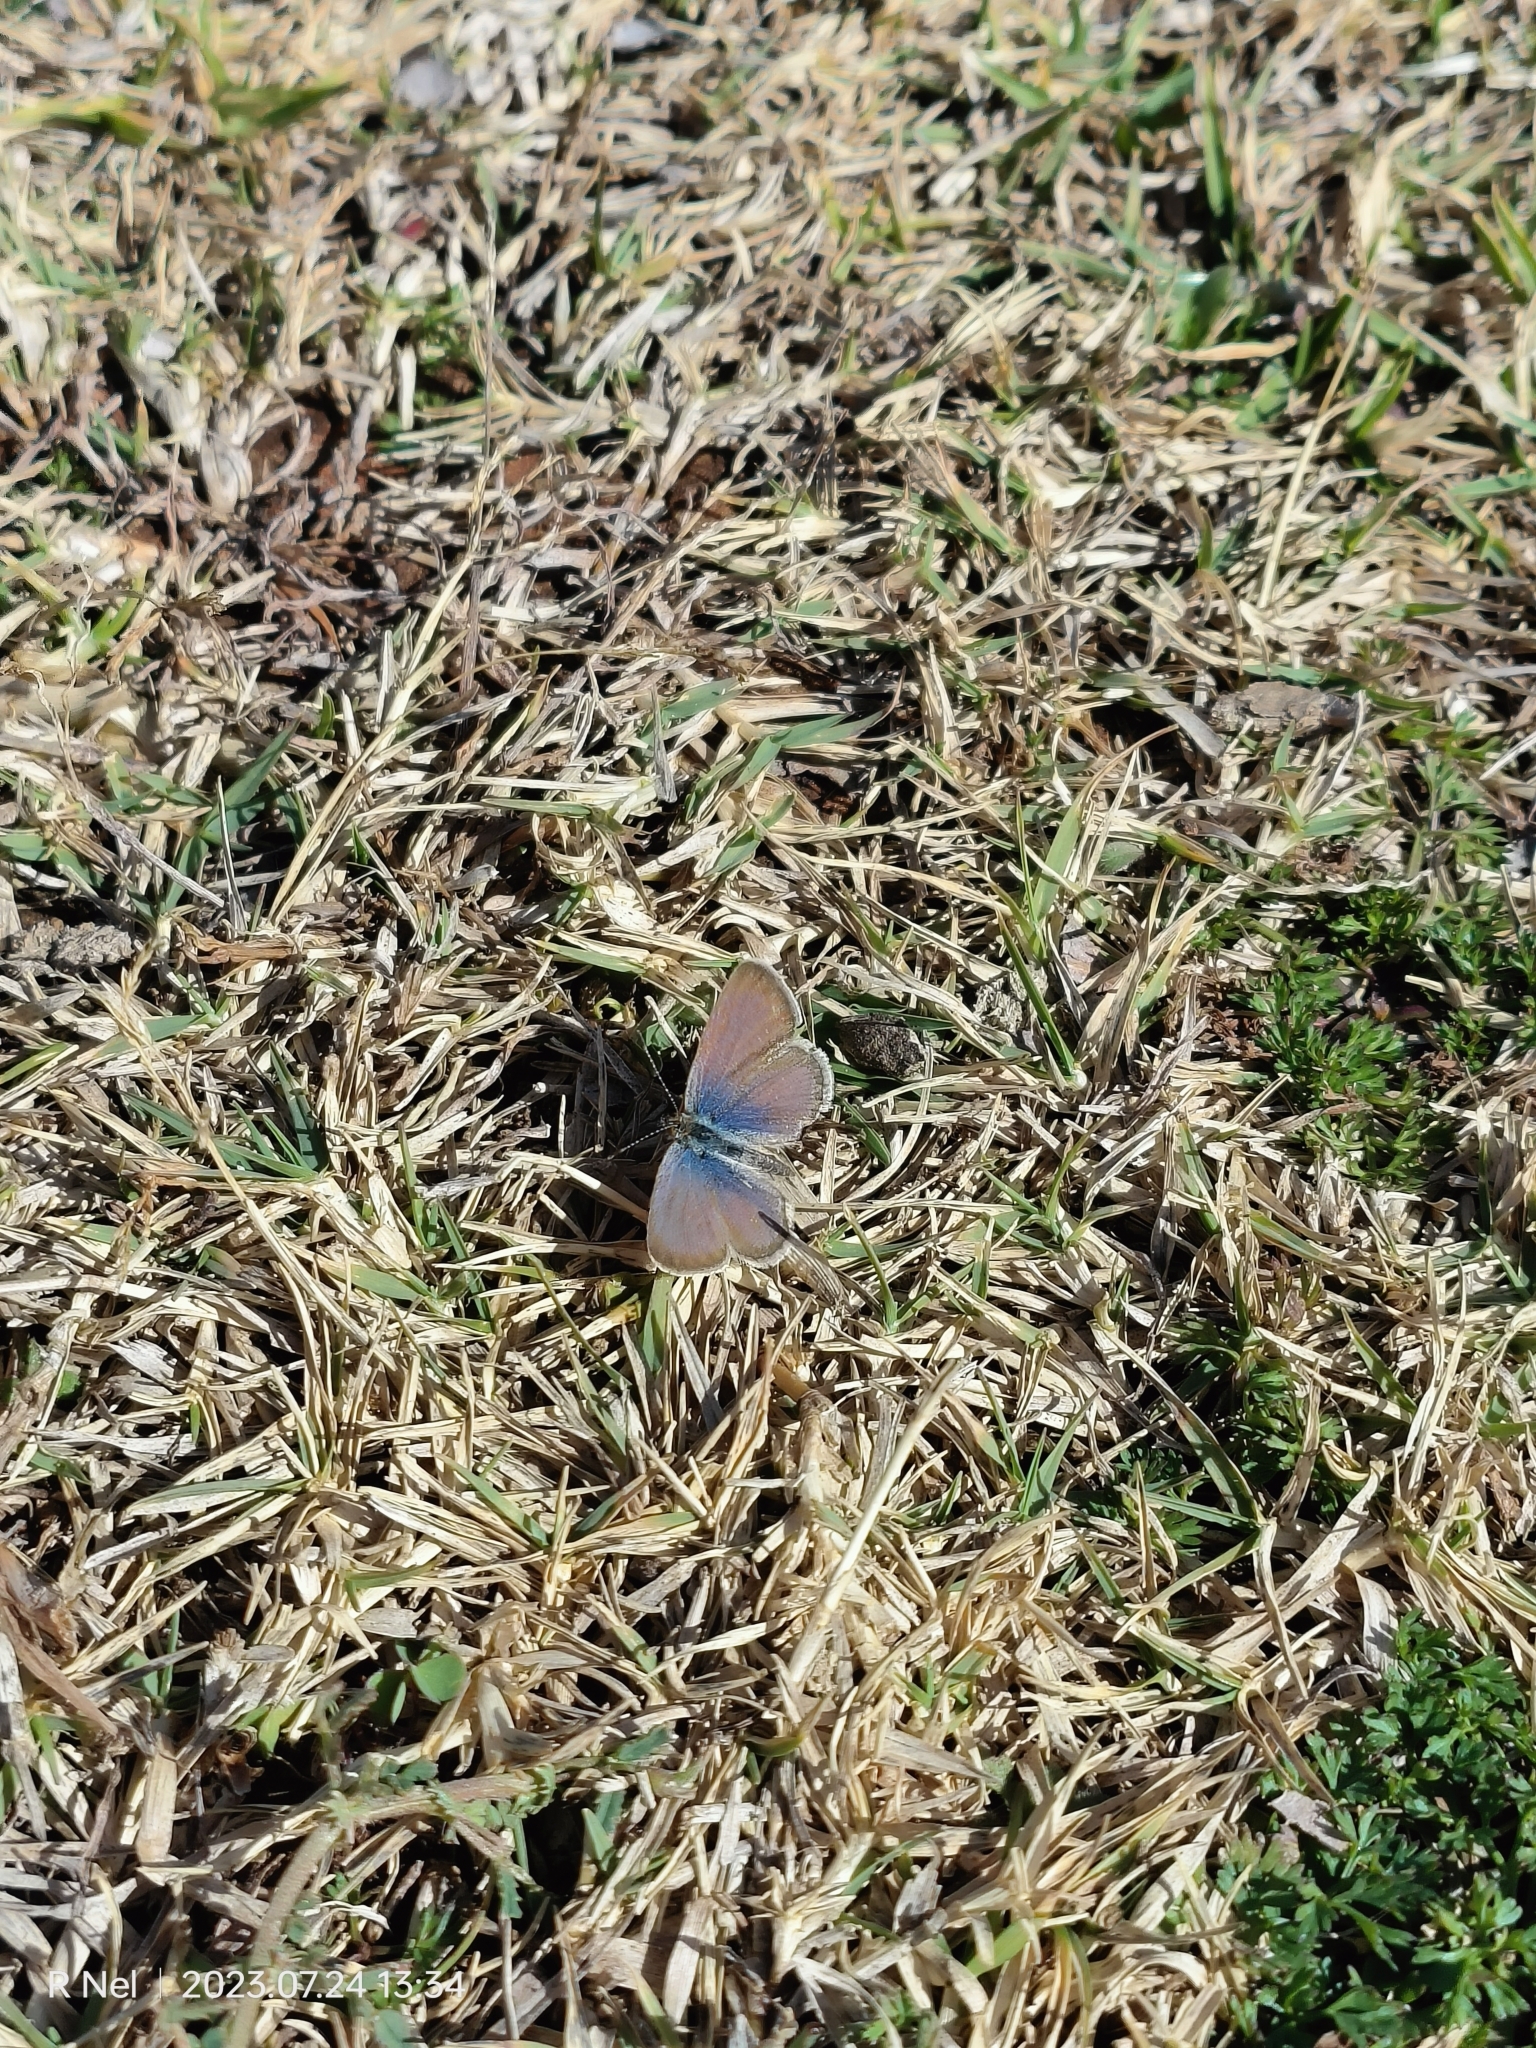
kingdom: Animalia
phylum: Arthropoda
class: Insecta
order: Lepidoptera
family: Lycaenidae
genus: Zizeeria
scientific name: Zizeeria knysna
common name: African grass blue
